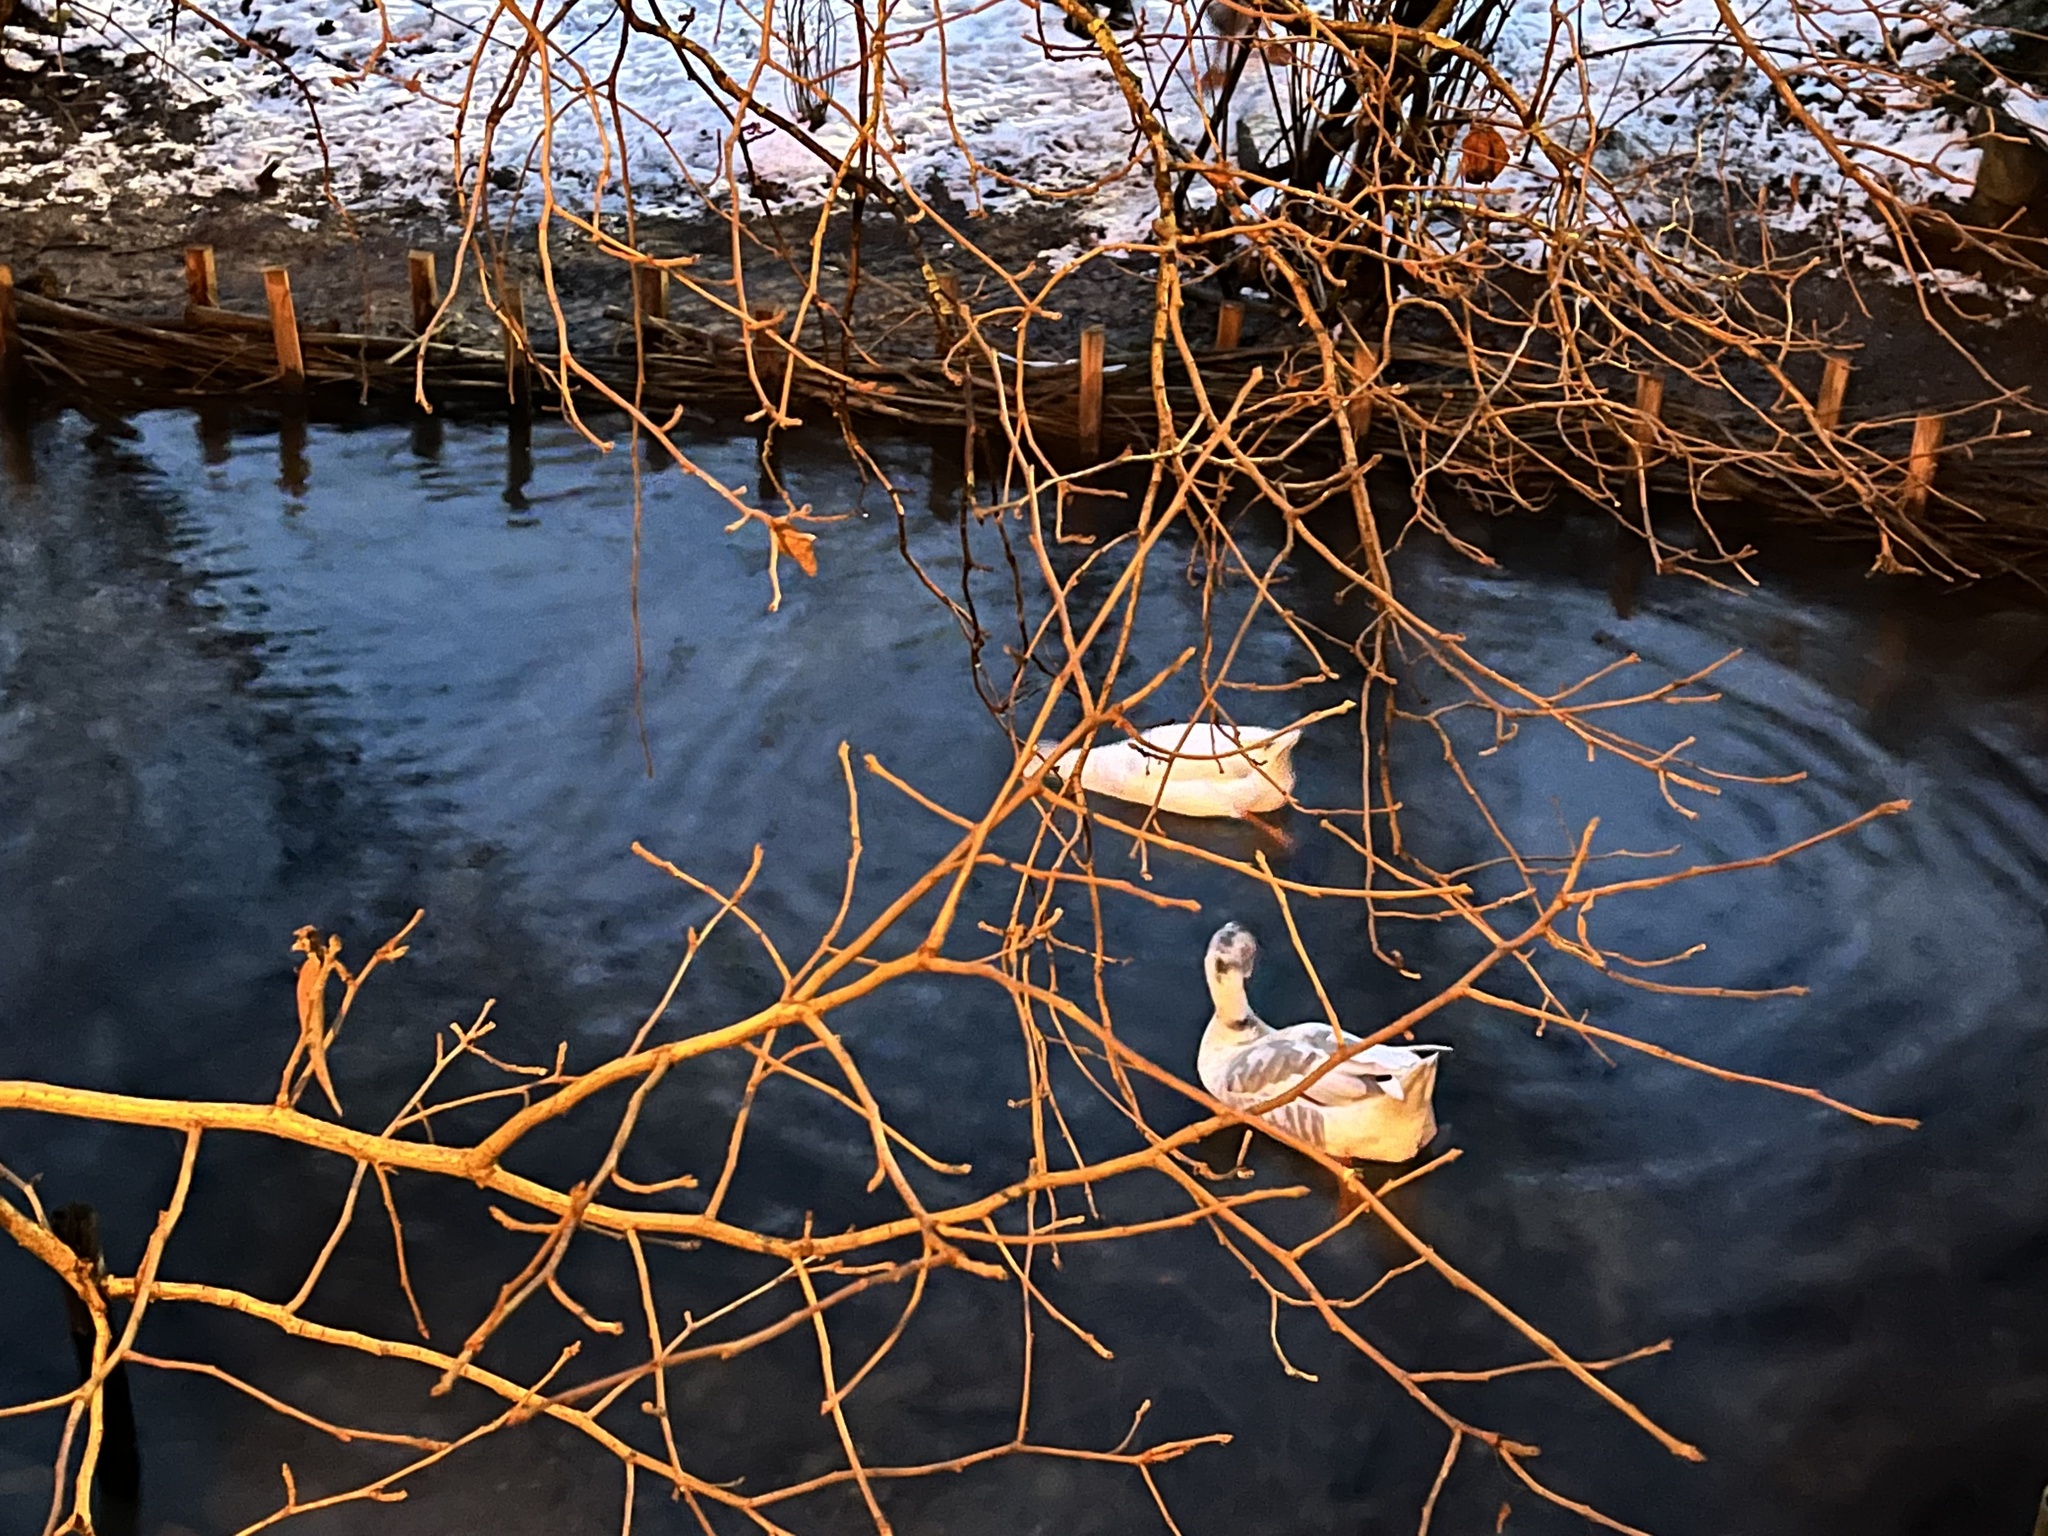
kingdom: Animalia
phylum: Chordata
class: Aves
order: Anseriformes
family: Anatidae
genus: Anser
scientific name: Anser cygnoides
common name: Swan goose
